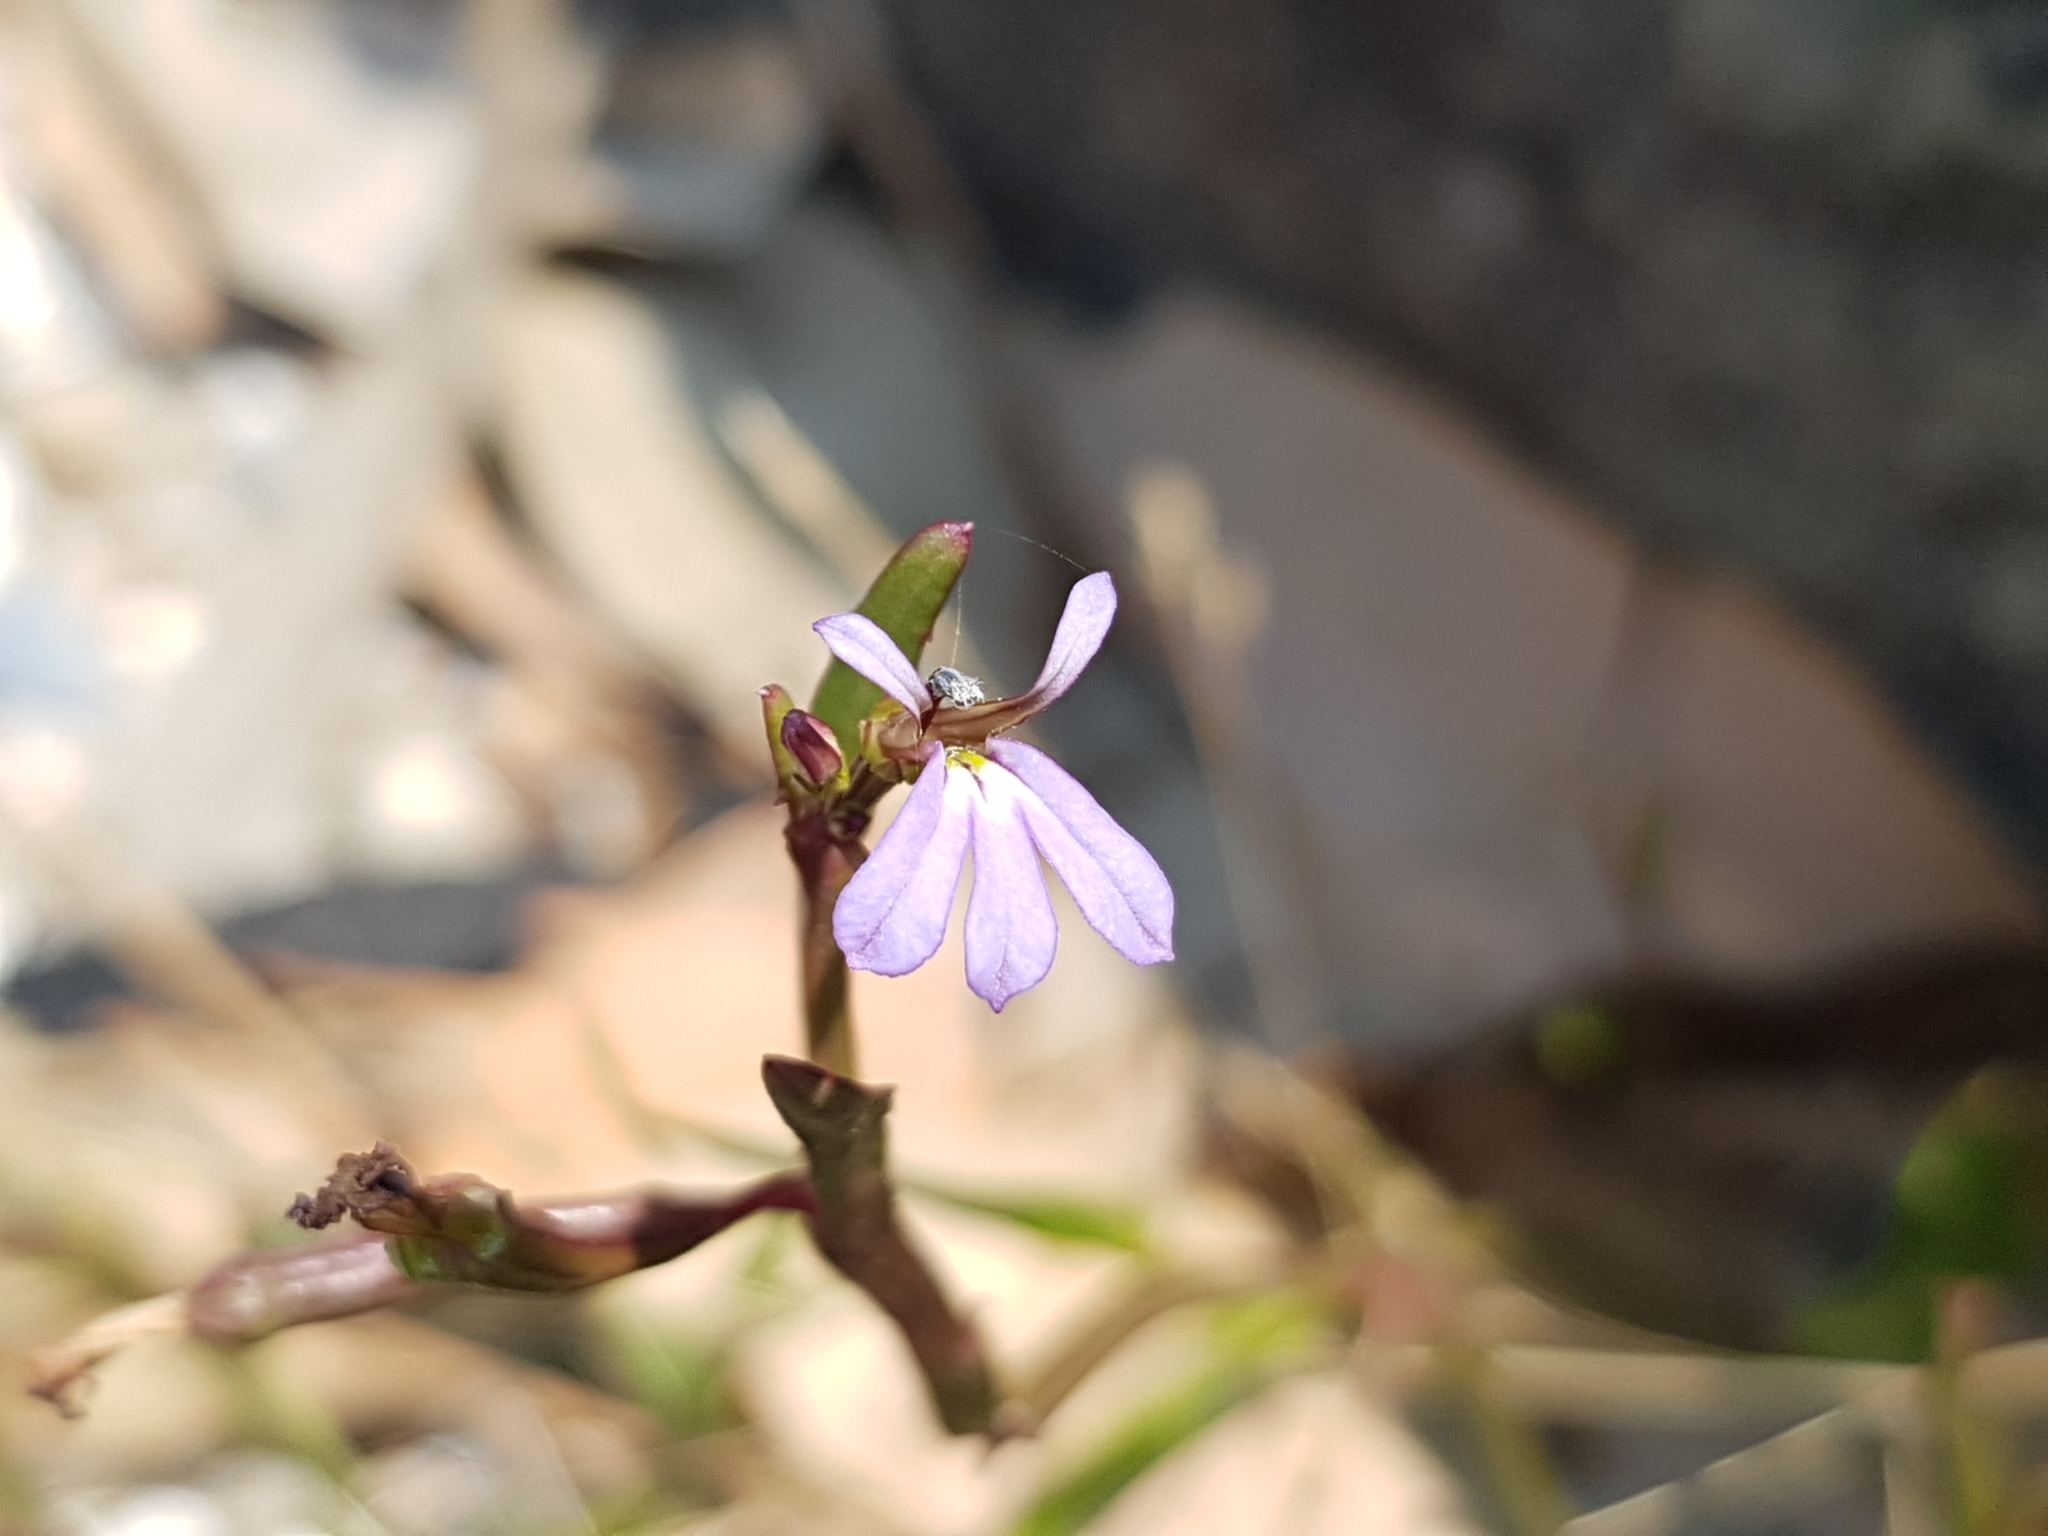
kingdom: Plantae
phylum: Tracheophyta
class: Magnoliopsida
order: Asterales
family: Campanulaceae
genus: Lobelia
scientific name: Lobelia anceps
